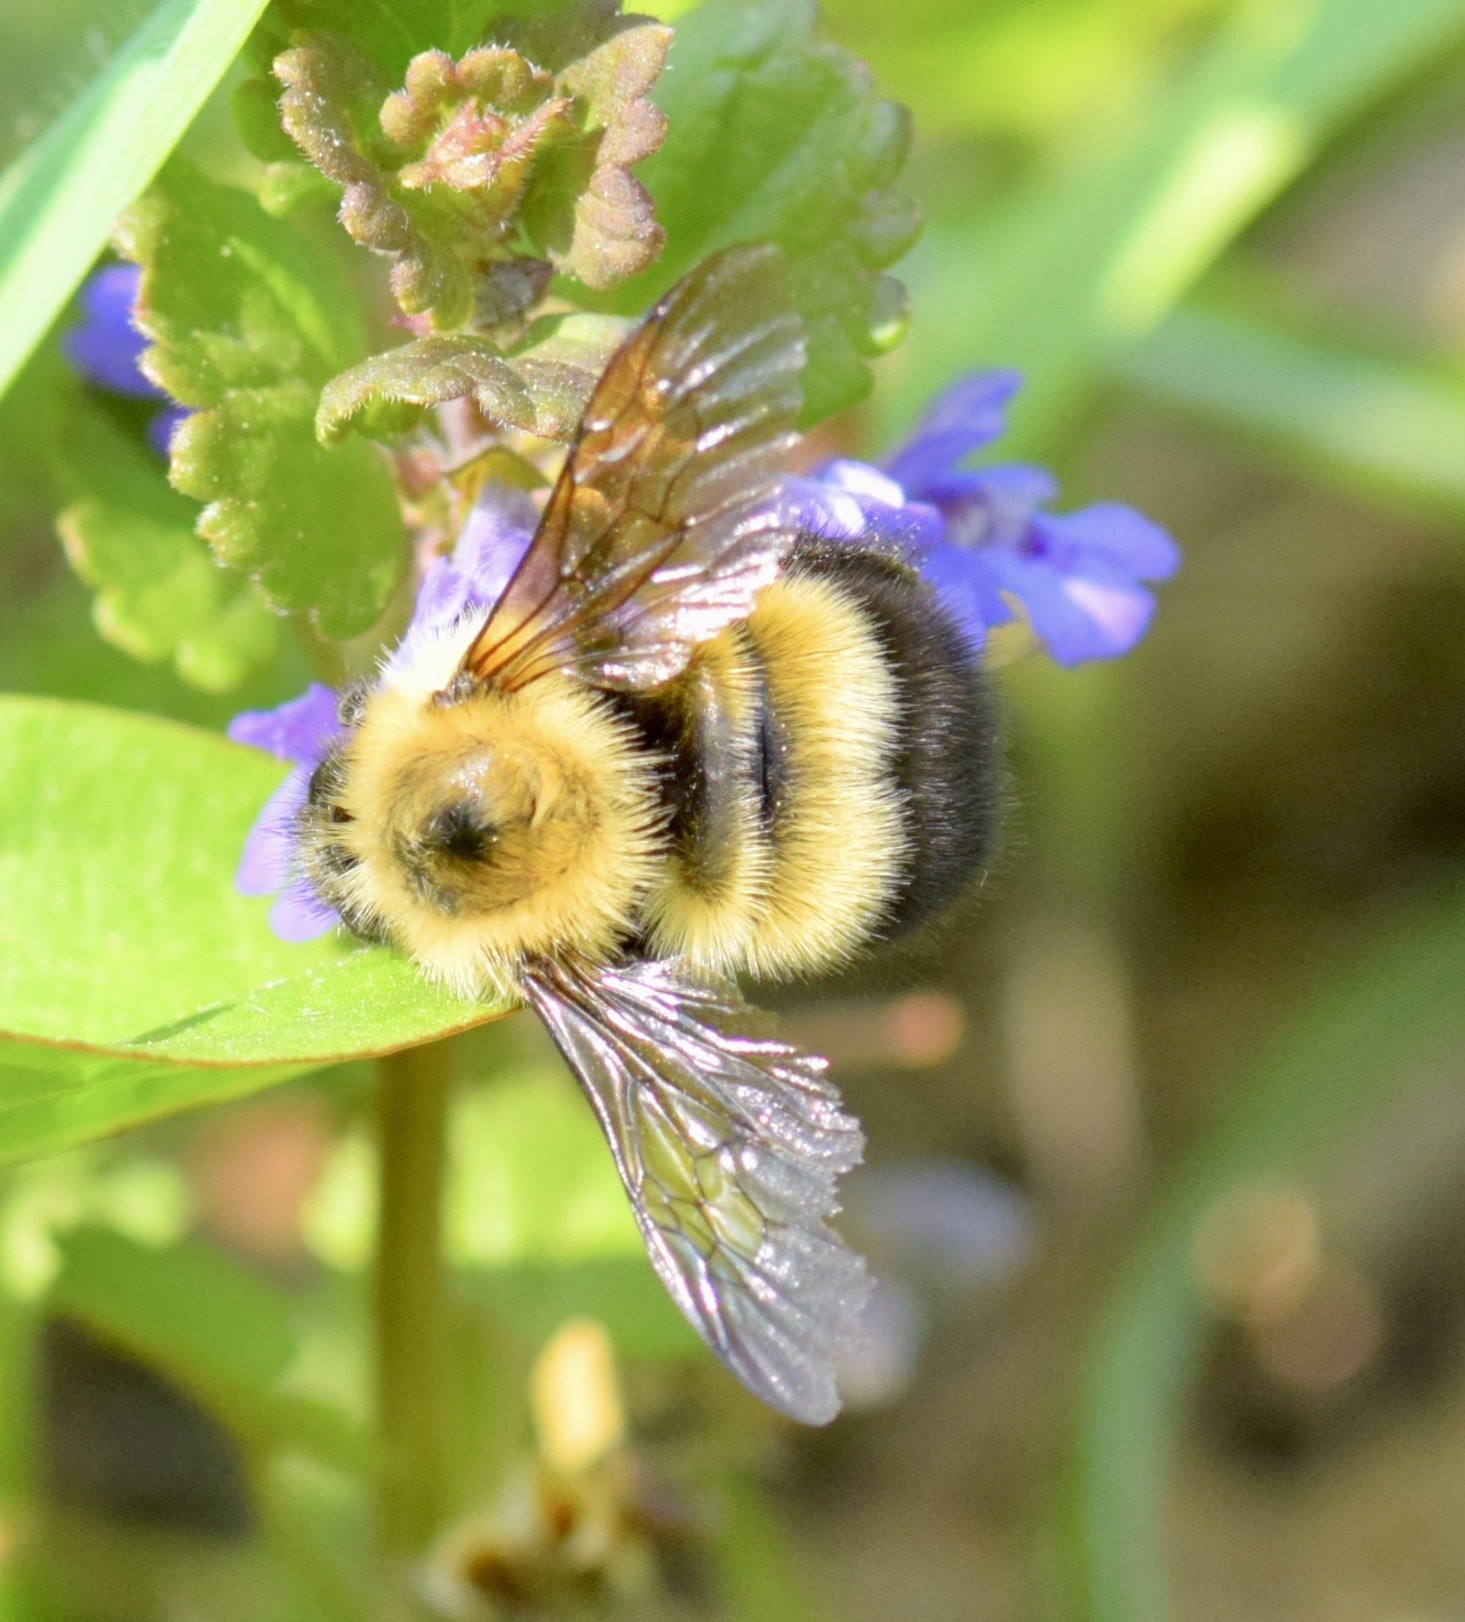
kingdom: Animalia
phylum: Arthropoda
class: Insecta
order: Hymenoptera
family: Apidae
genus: Pyrobombus
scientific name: Pyrobombus
